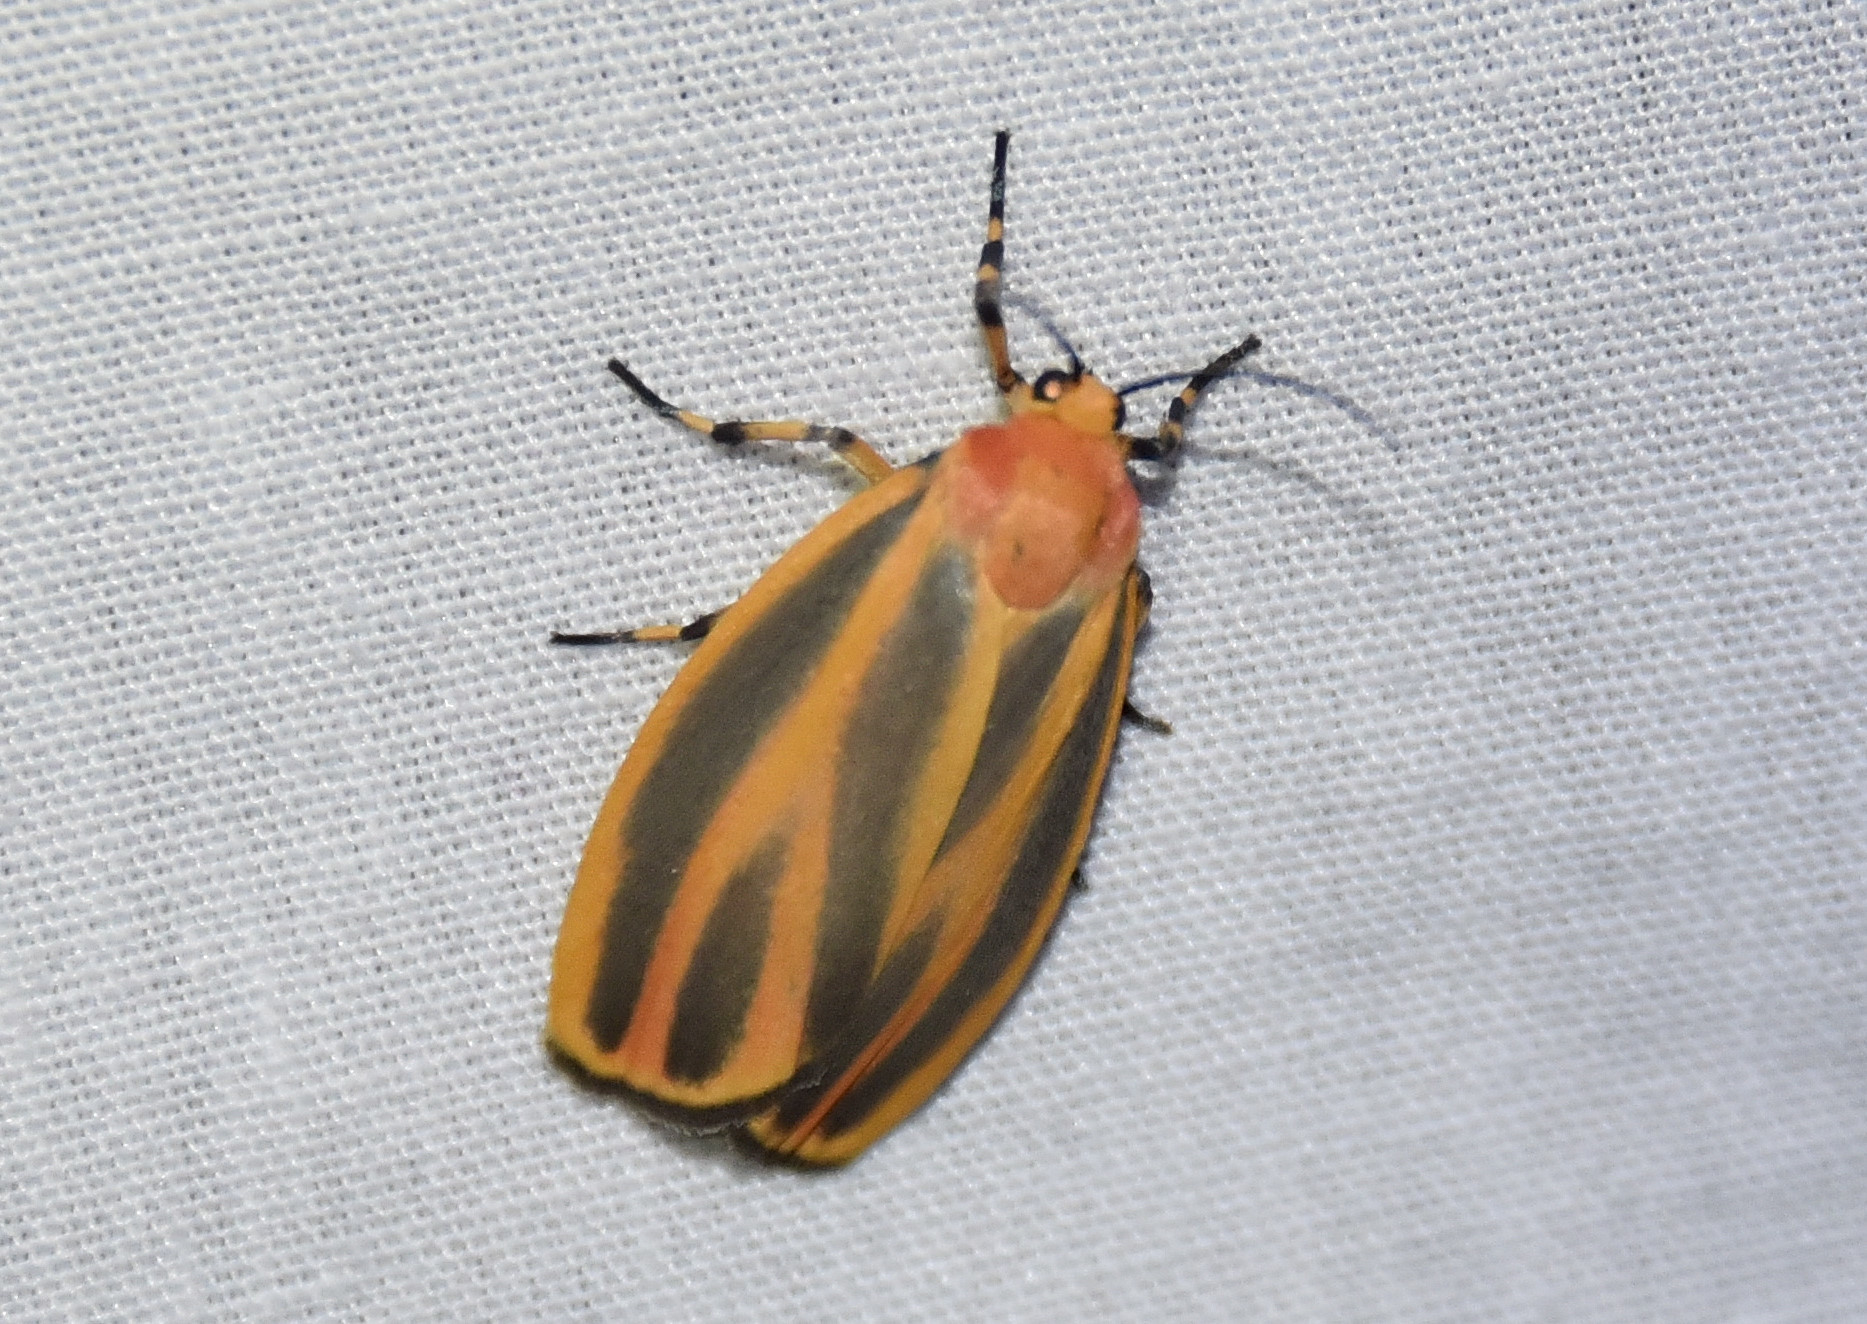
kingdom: Animalia
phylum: Arthropoda
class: Insecta
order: Lepidoptera
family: Erebidae
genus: Hypoprepia
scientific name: Hypoprepia fucosa
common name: Painted lichen moth
